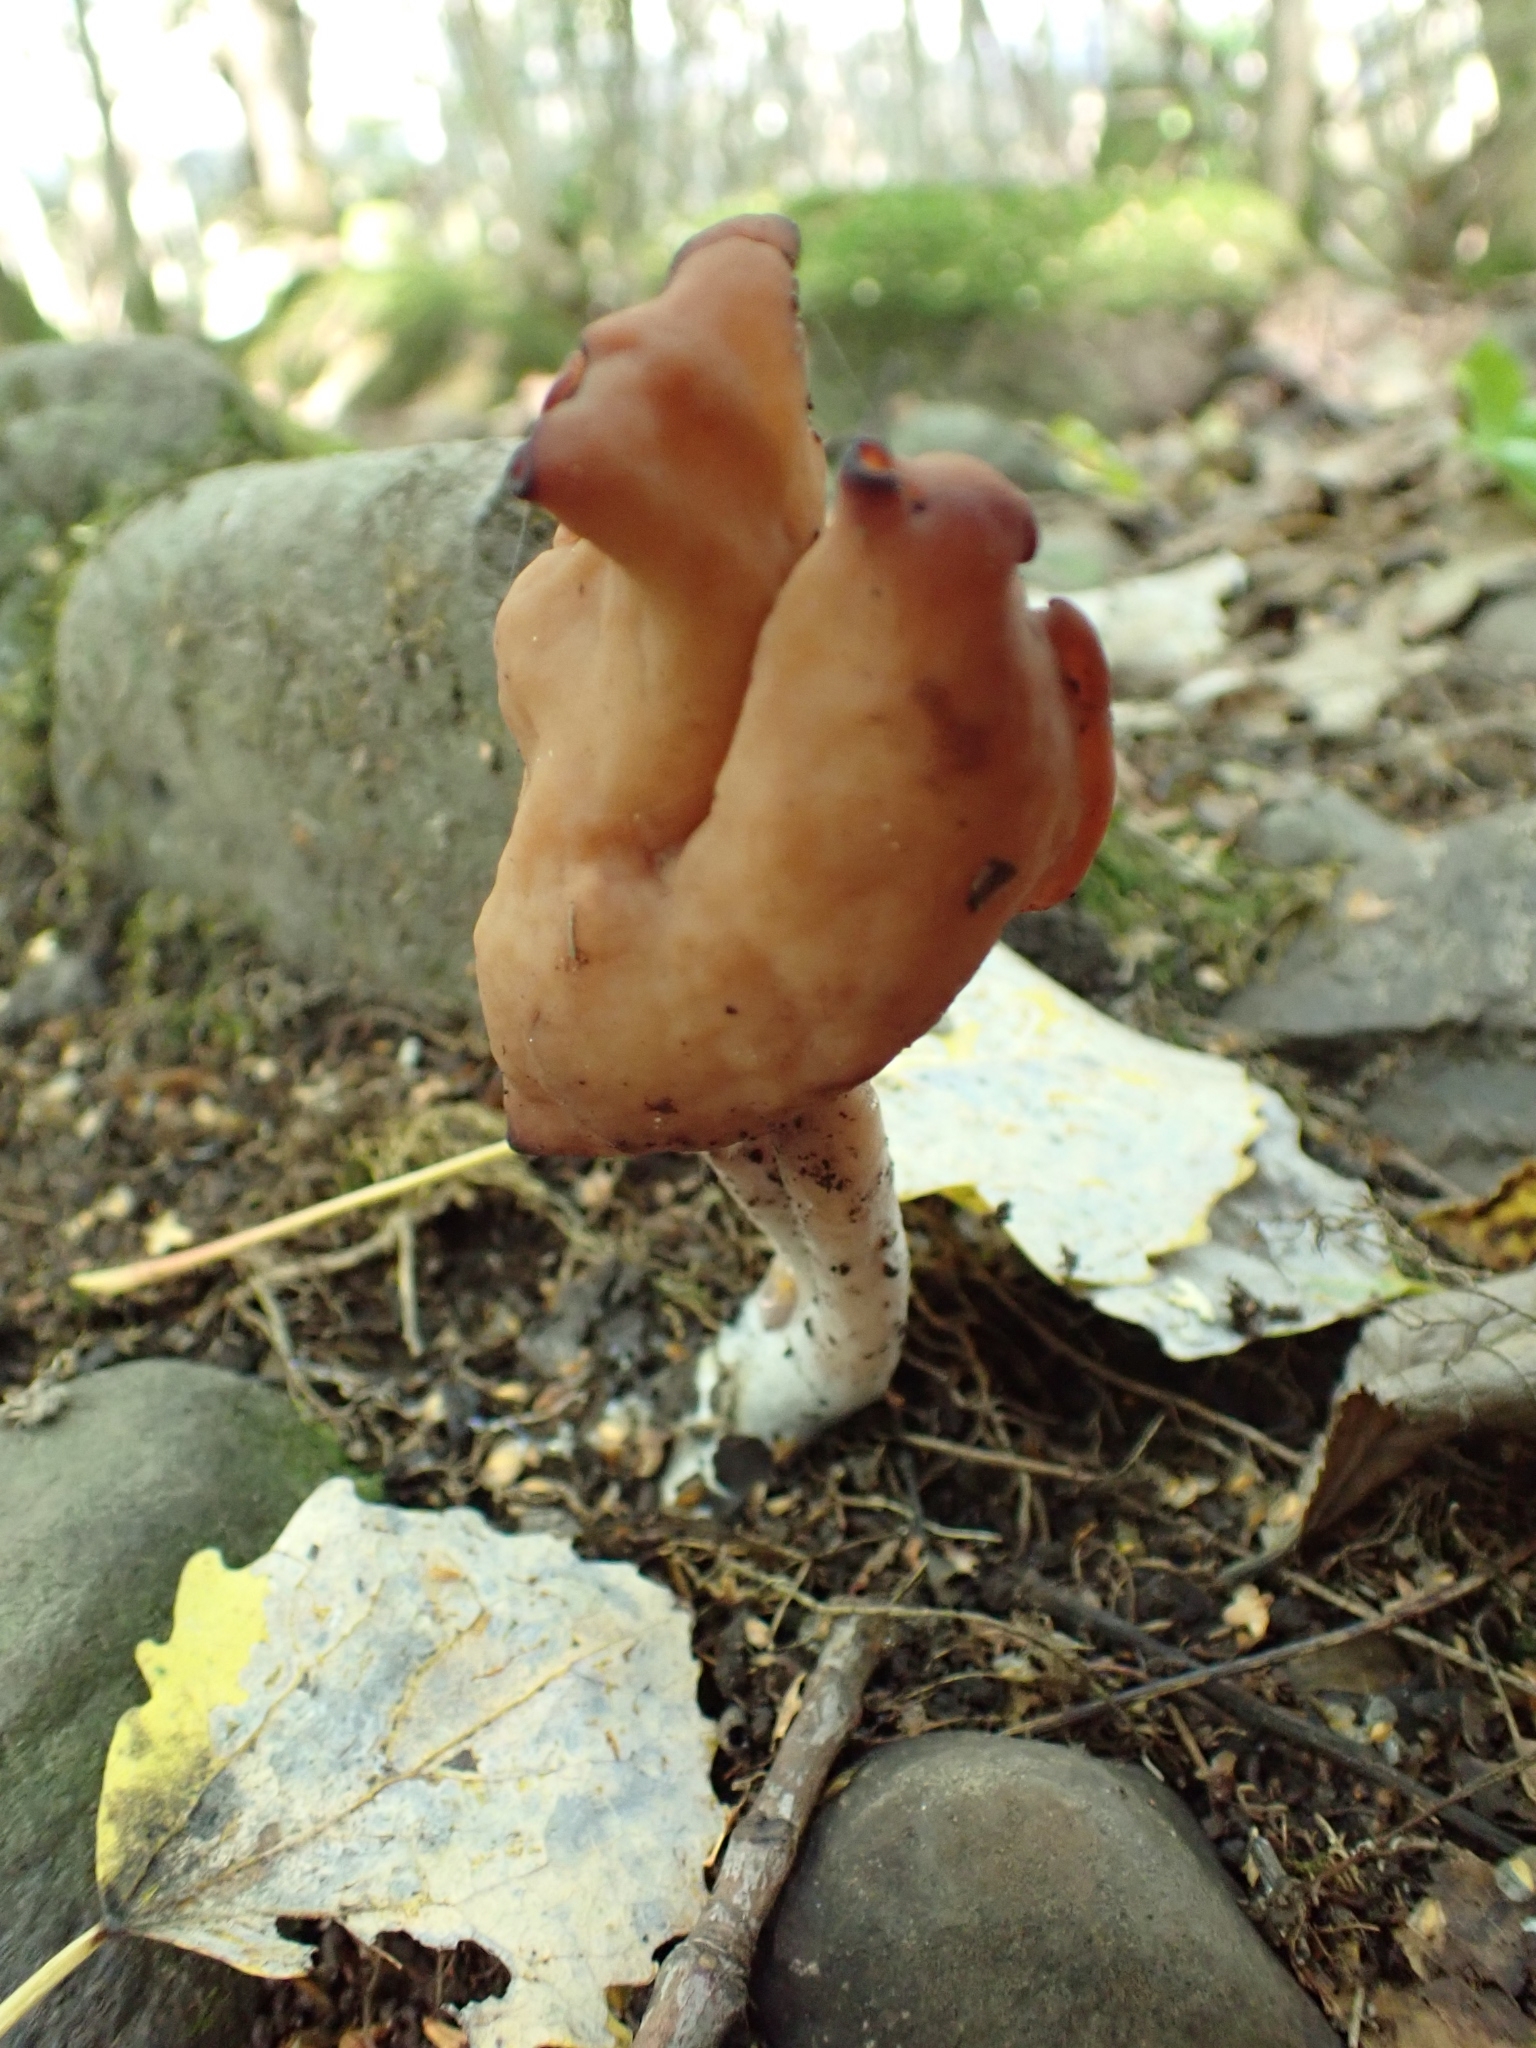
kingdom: Fungi
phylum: Ascomycota
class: Pezizomycetes
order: Pezizales
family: Discinaceae
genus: Gyromitra
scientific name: Gyromitra infula
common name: Pouched false morel
